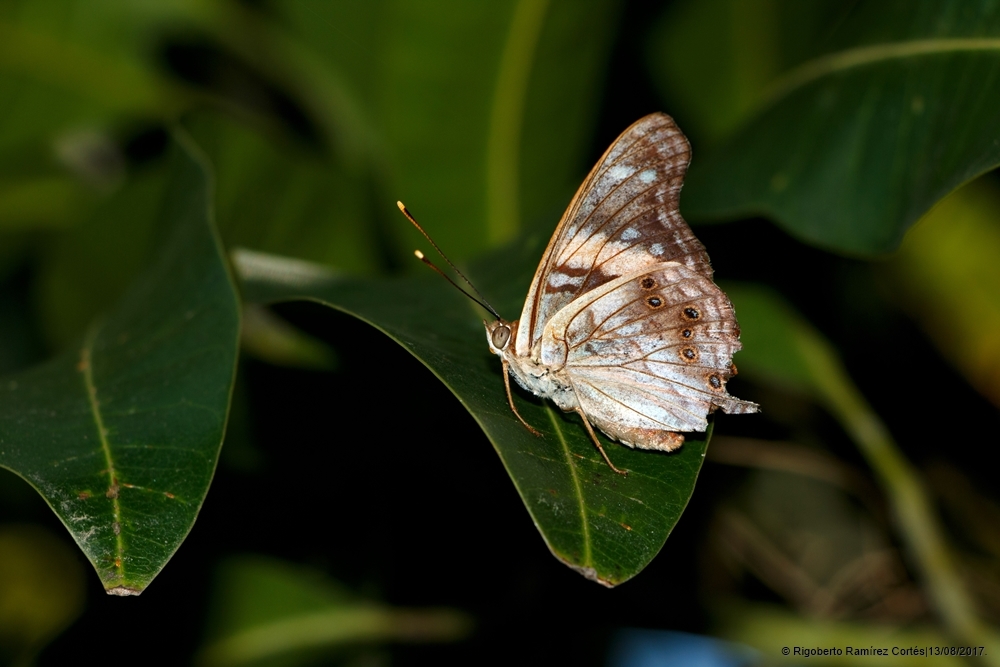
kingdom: Animalia
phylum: Arthropoda
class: Insecta
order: Lepidoptera
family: Nymphalidae
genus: Asterocampa
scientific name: Asterocampa idyja
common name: Dusky emperor
